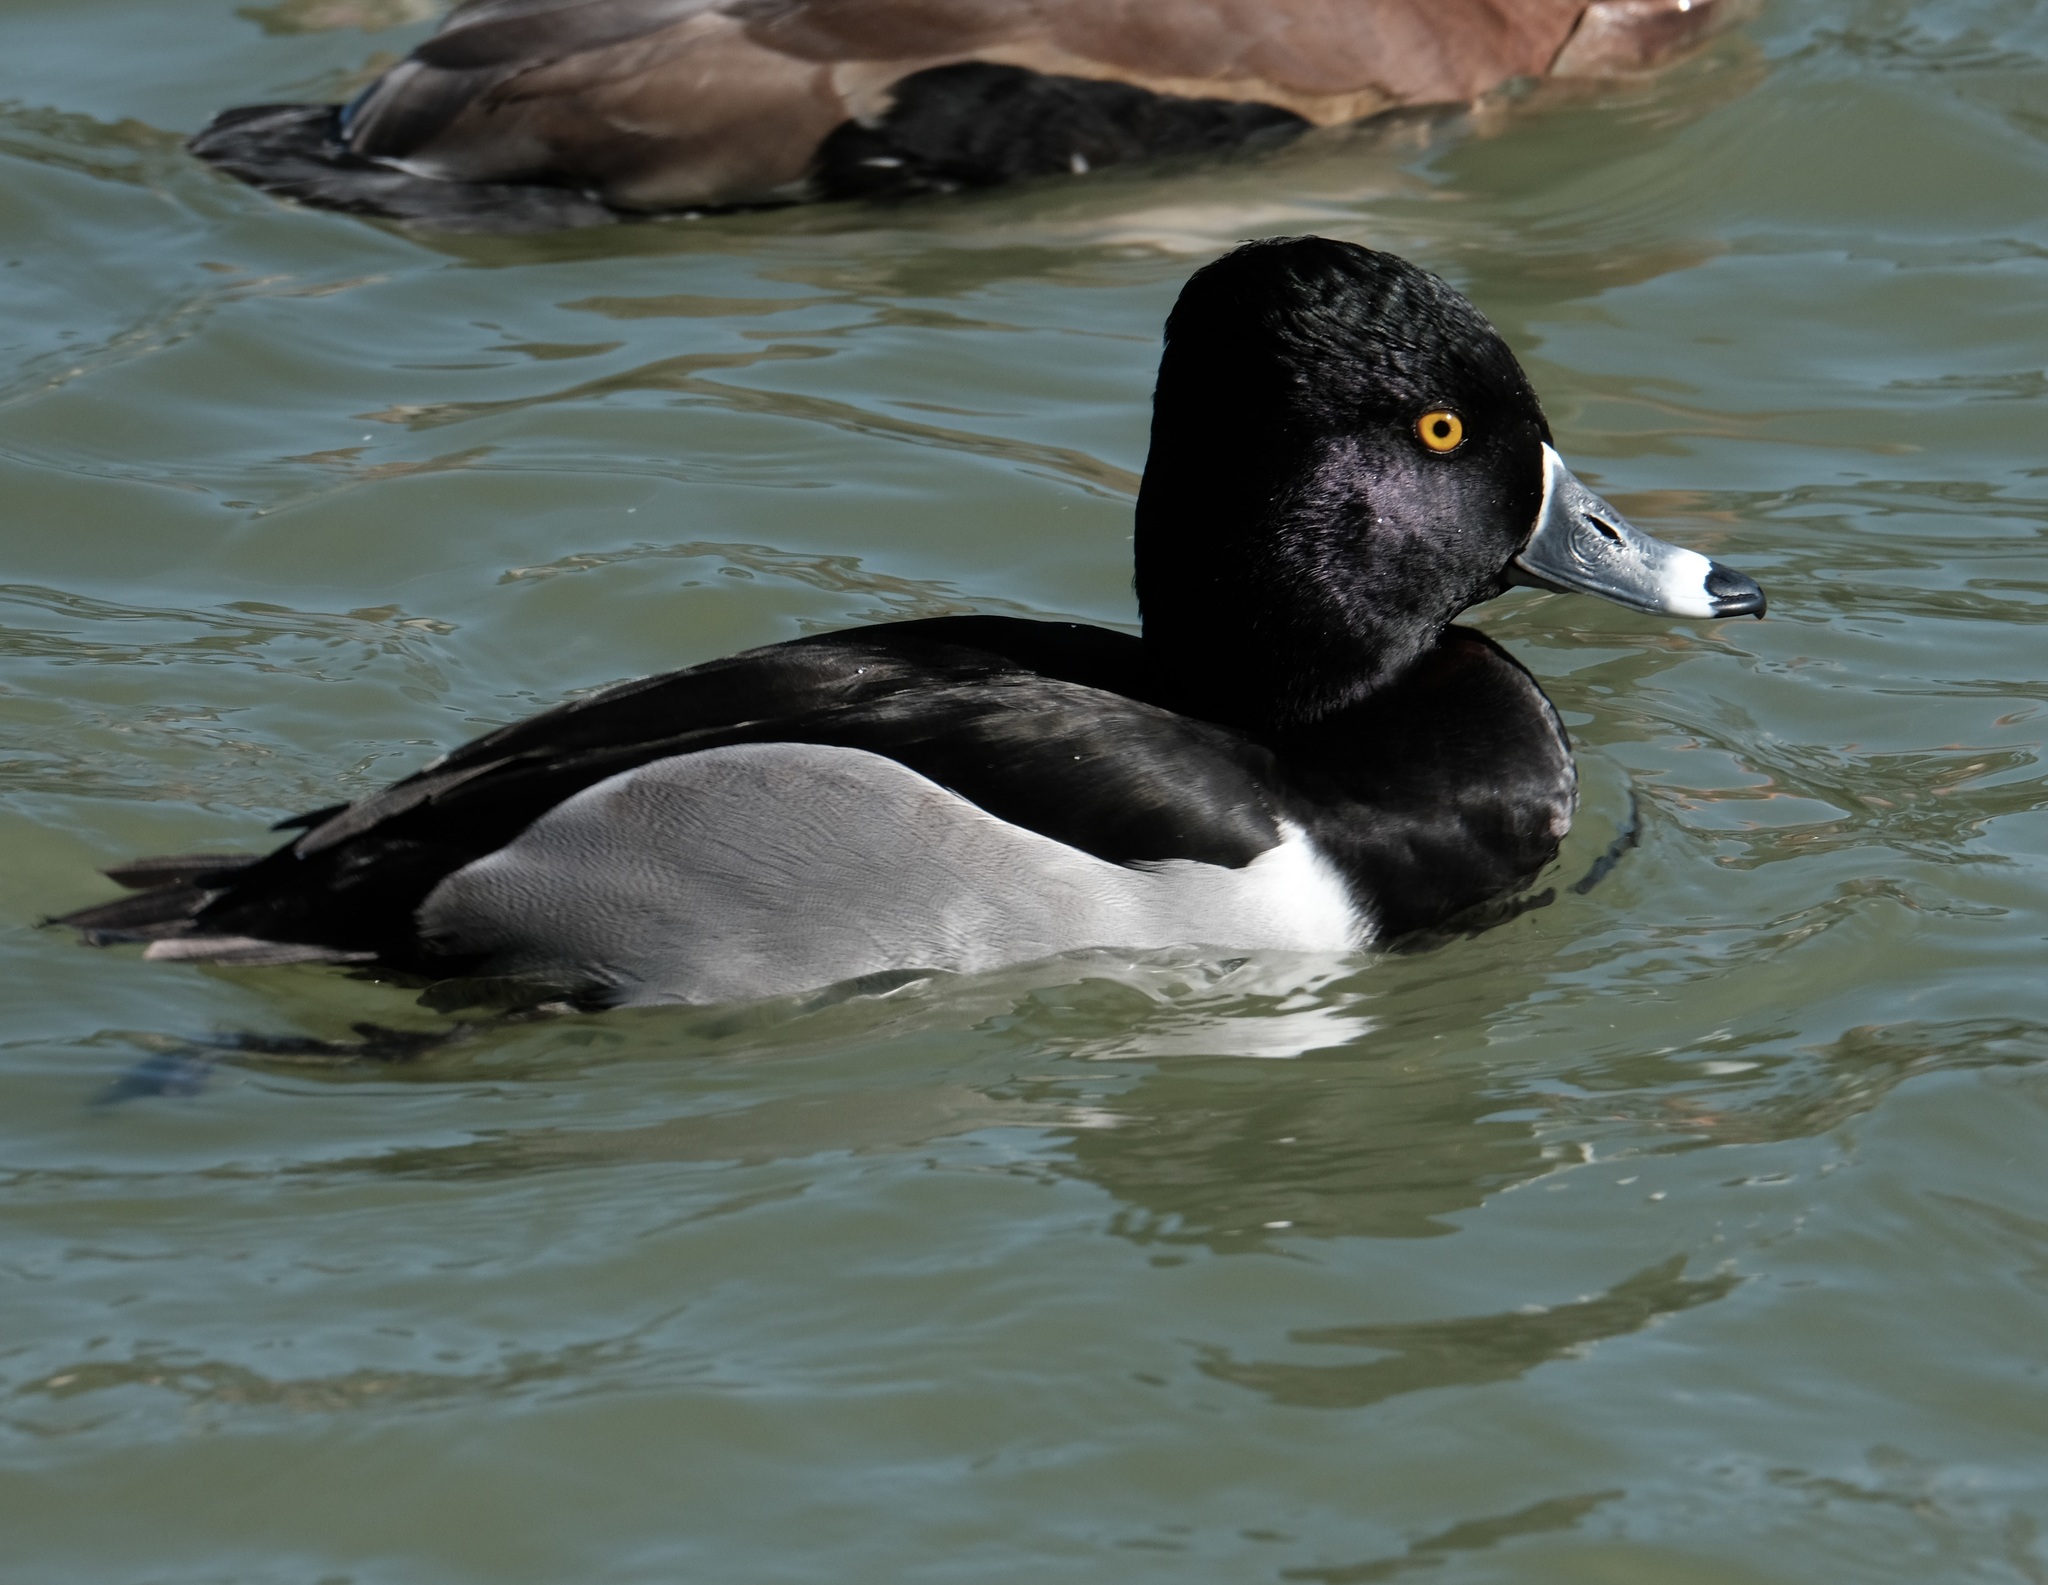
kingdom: Animalia
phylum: Chordata
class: Aves
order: Anseriformes
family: Anatidae
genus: Aythya
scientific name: Aythya collaris
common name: Ring-necked duck
